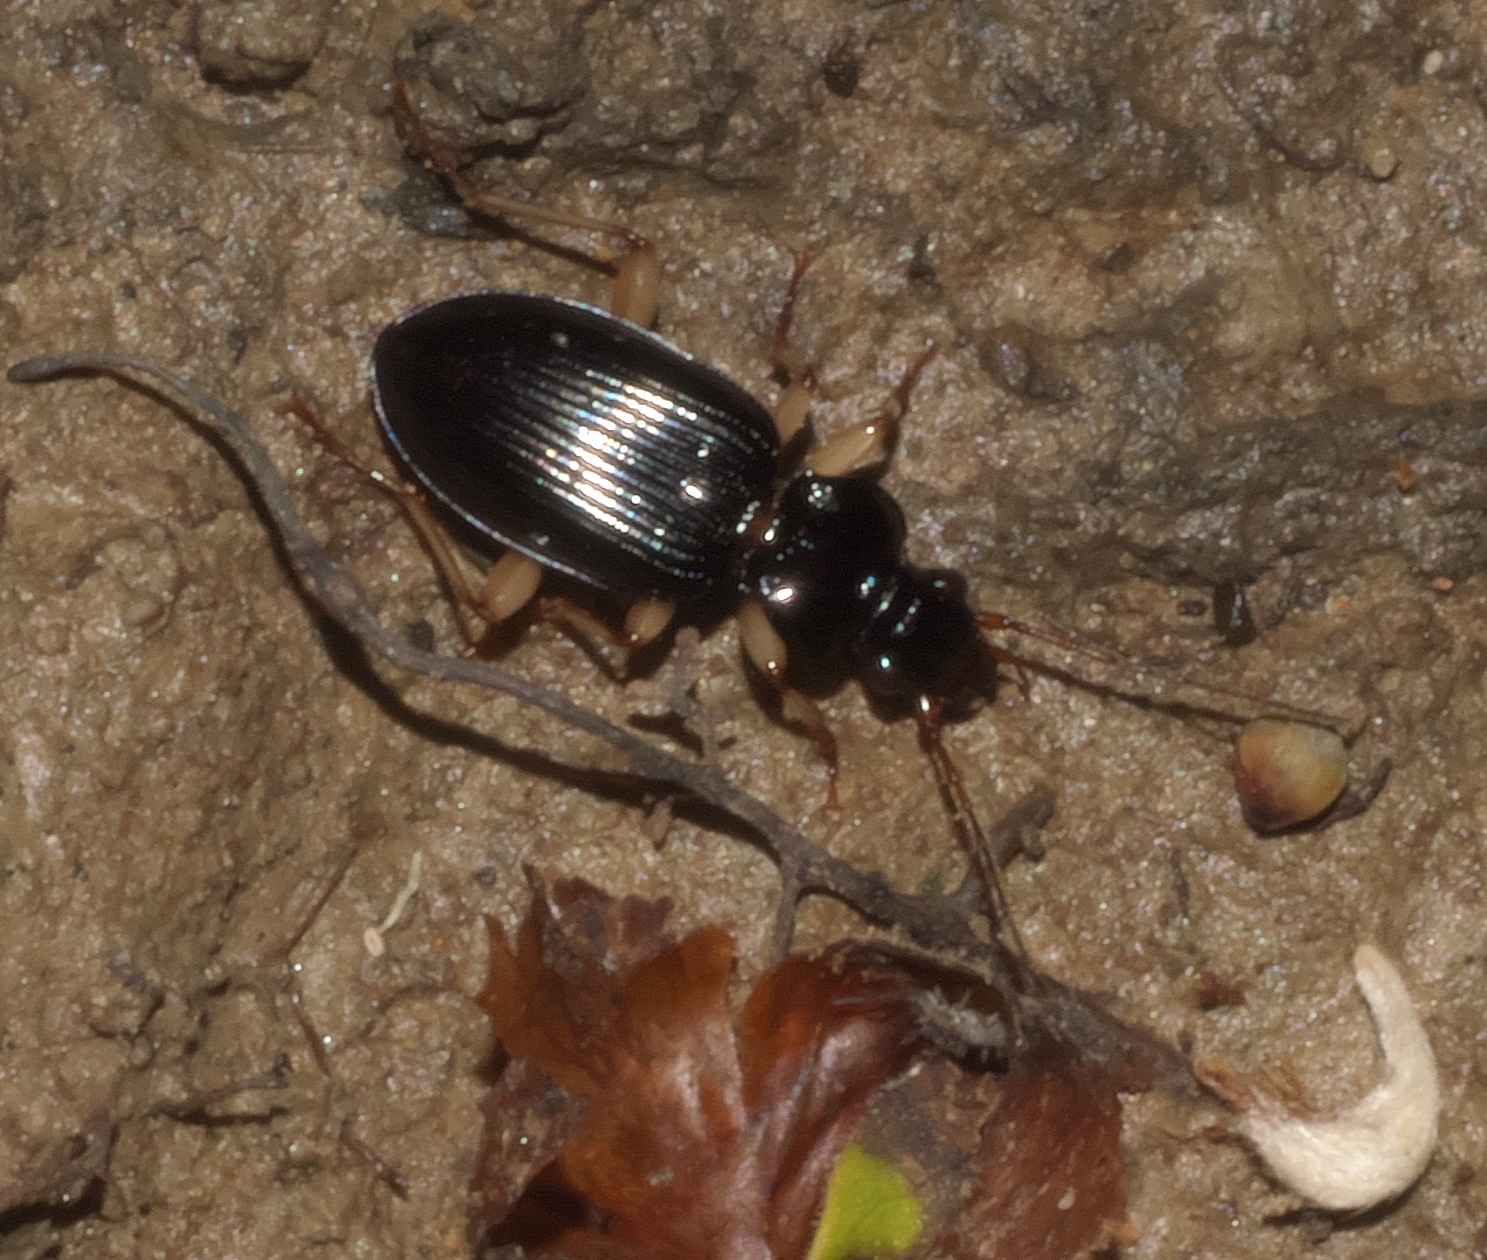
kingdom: Animalia
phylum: Arthropoda
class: Insecta
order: Coleoptera
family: Carabidae
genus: Patrobus
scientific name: Patrobus longicornis
